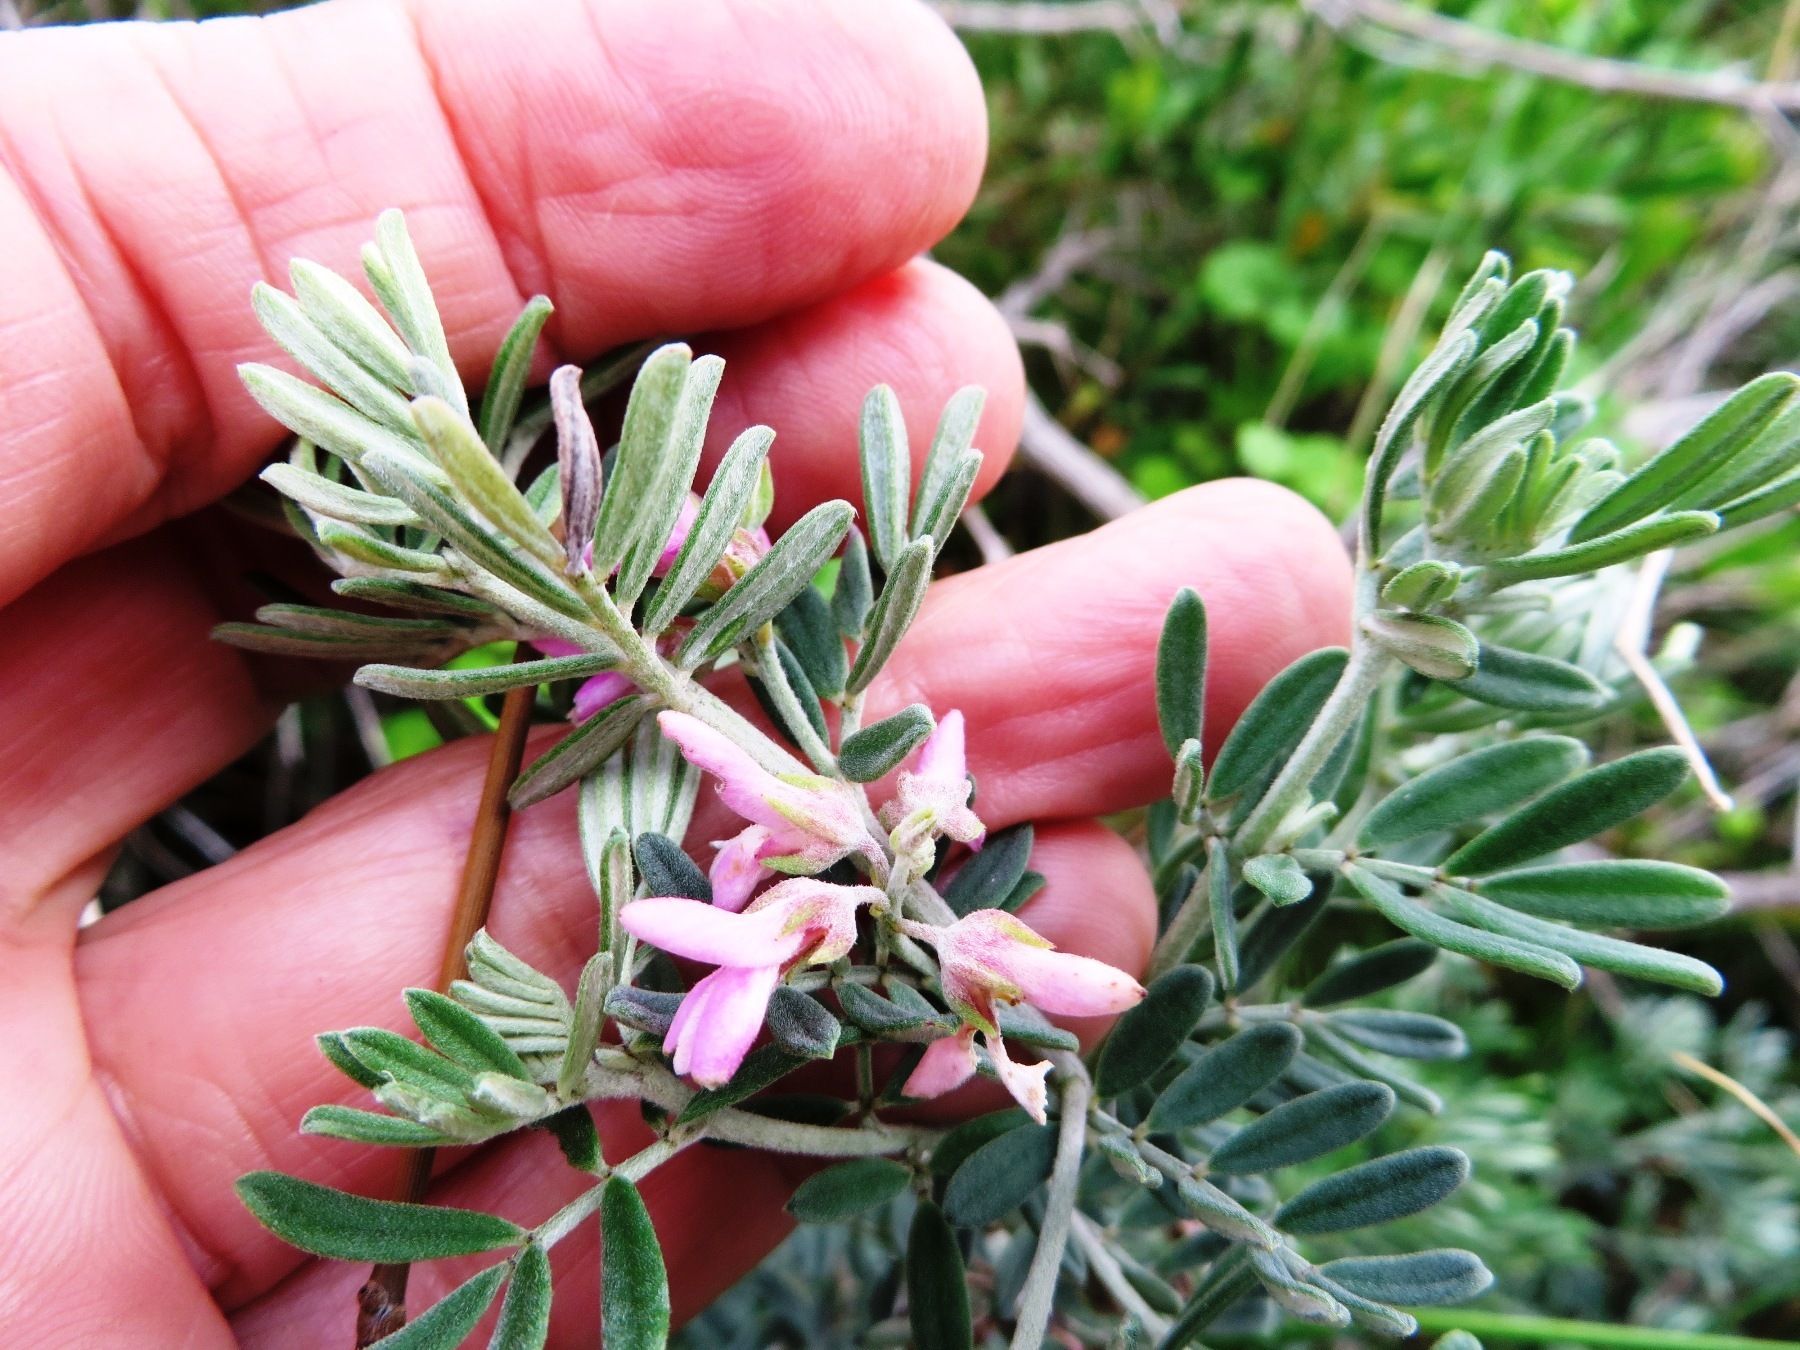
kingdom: Plantae
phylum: Tracheophyta
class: Magnoliopsida
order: Fabales
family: Fabaceae
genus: Indigofera
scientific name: Indigofera brachystachya
